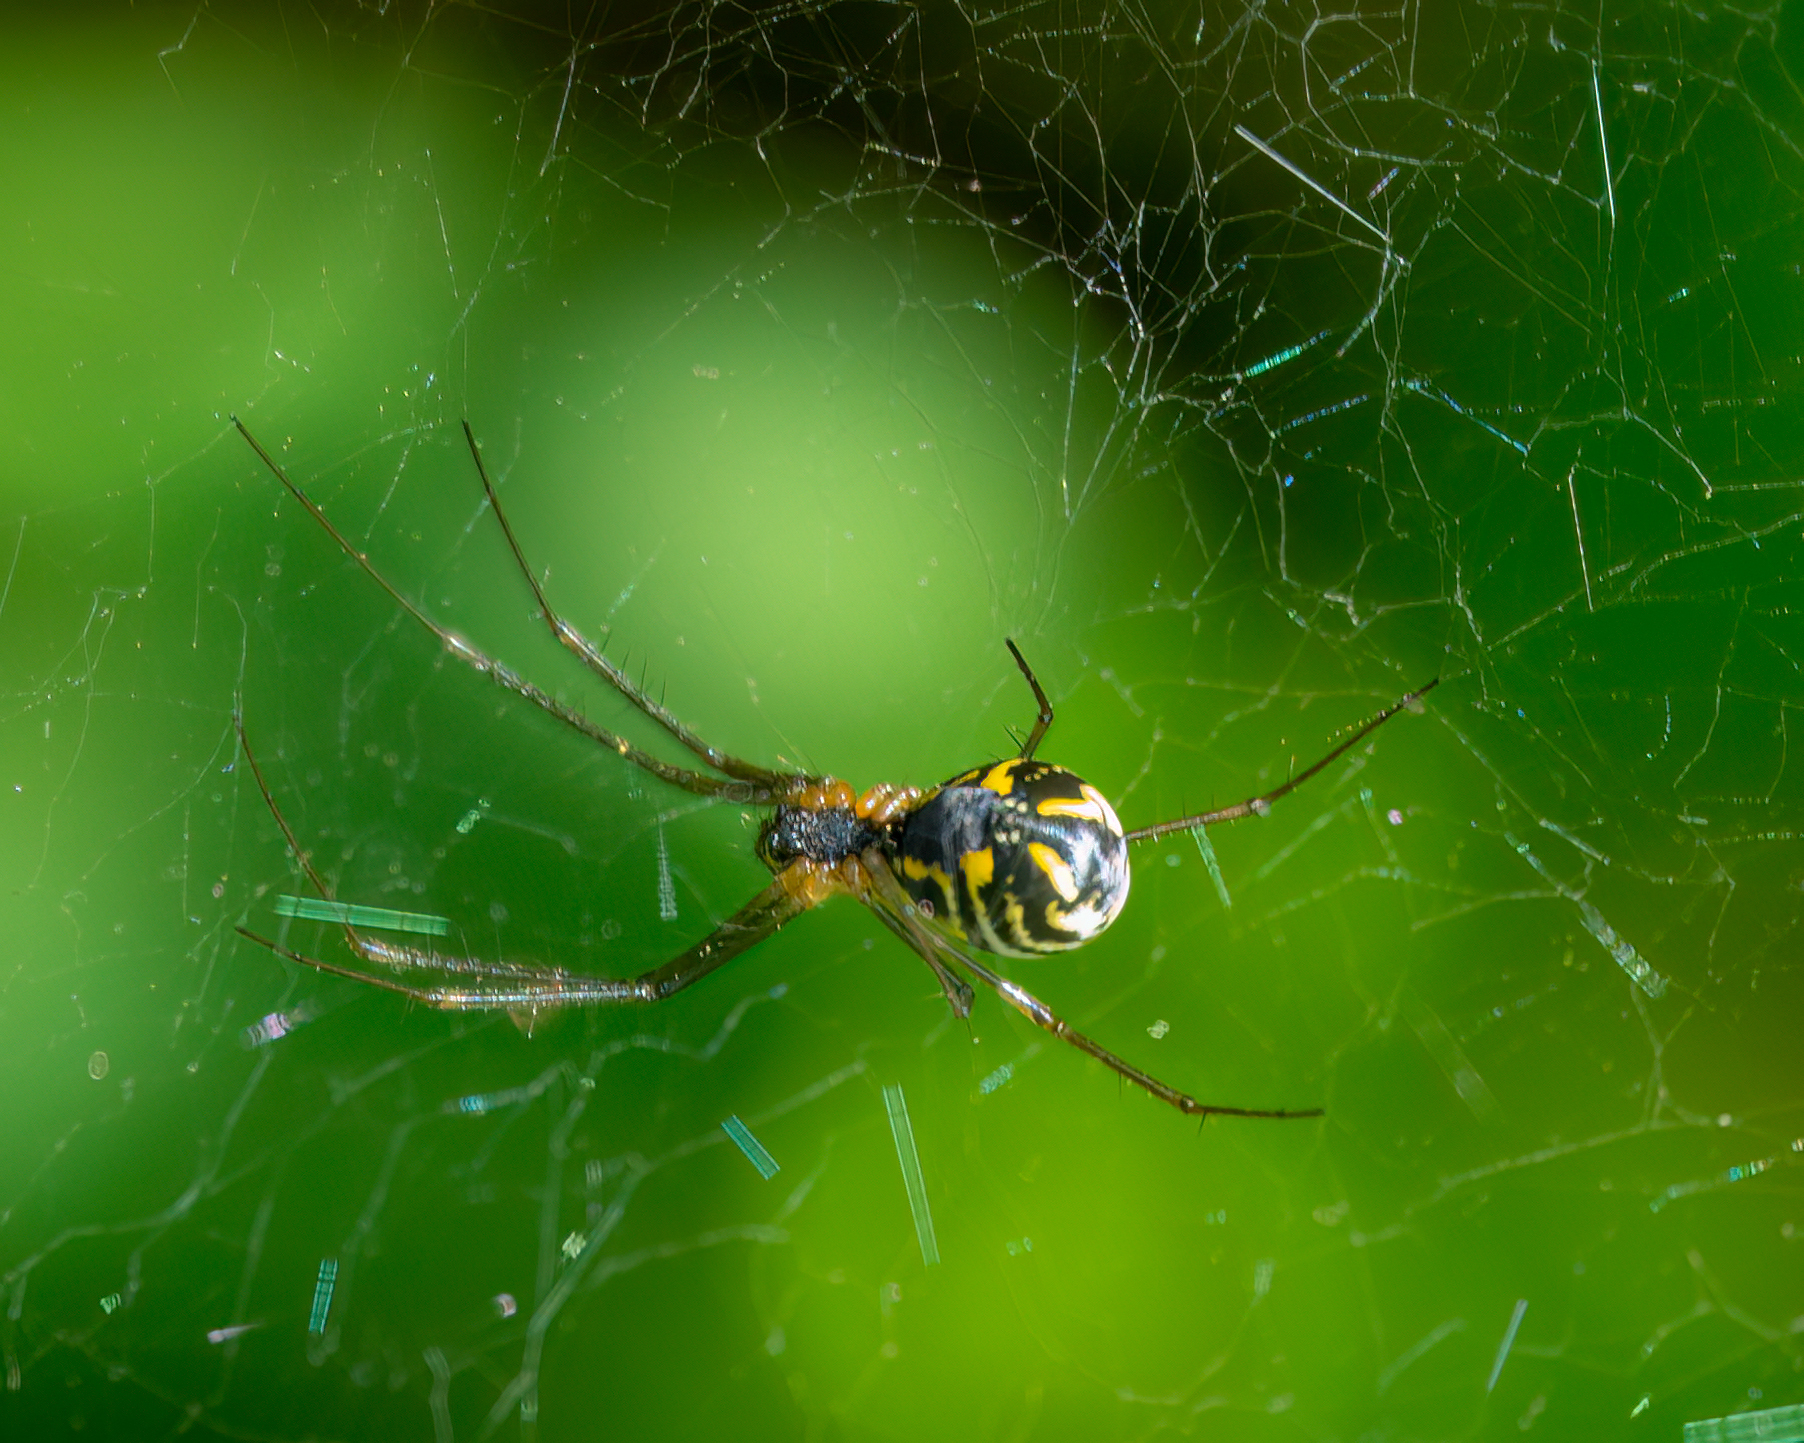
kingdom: Animalia
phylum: Arthropoda
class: Arachnida
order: Araneae
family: Linyphiidae
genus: Neriene
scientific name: Neriene radiata
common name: Filmy dome spider
